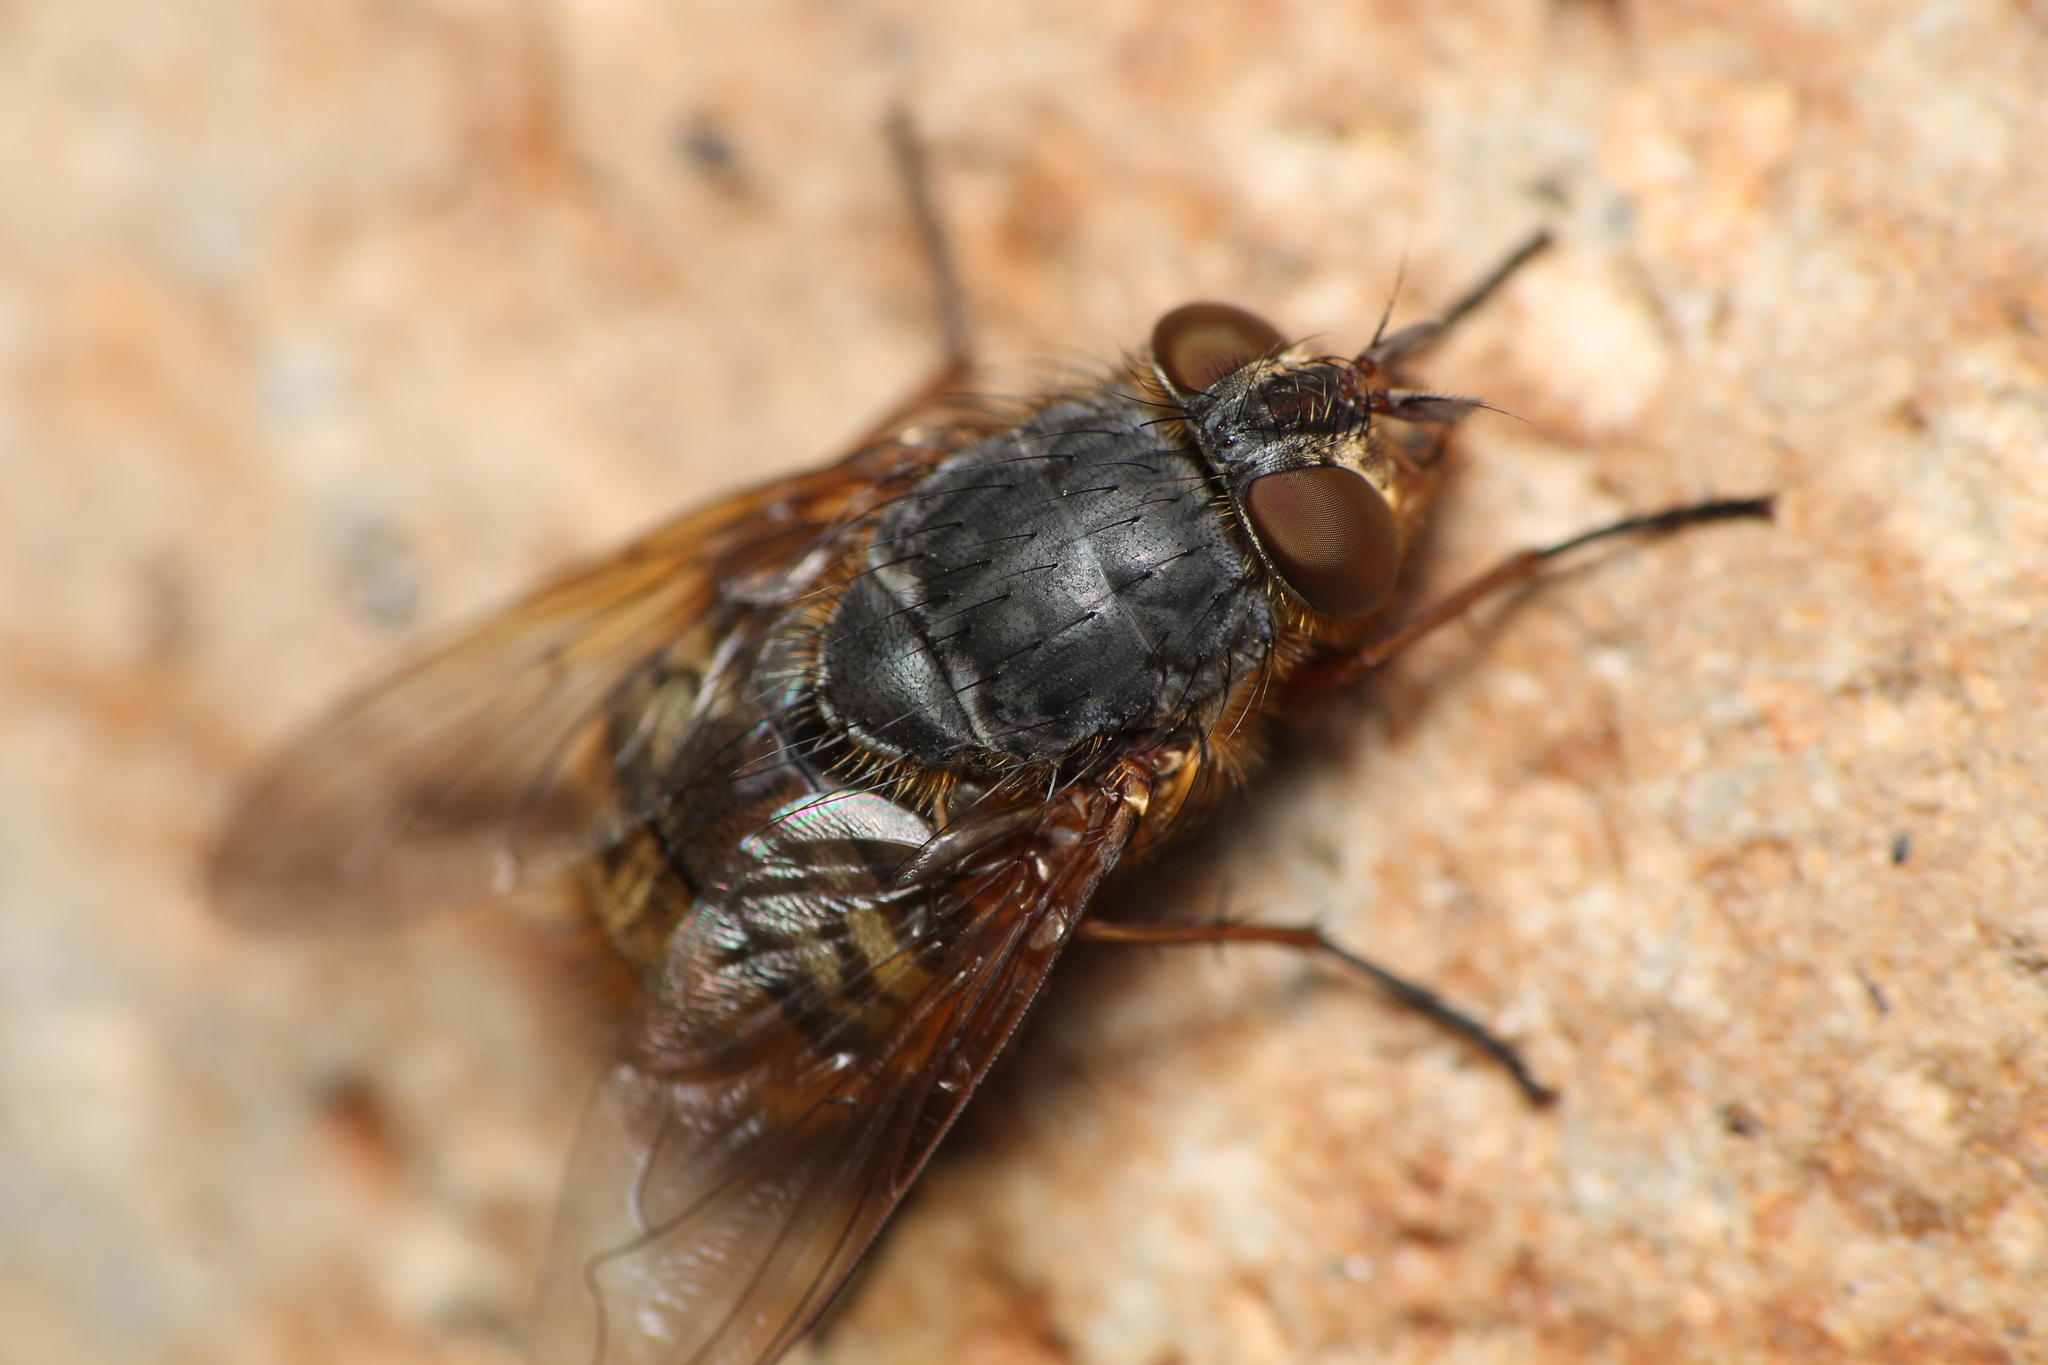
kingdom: Animalia
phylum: Arthropoda
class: Insecta
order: Diptera
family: Calliphoridae
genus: Calliphora
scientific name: Calliphora hilli
